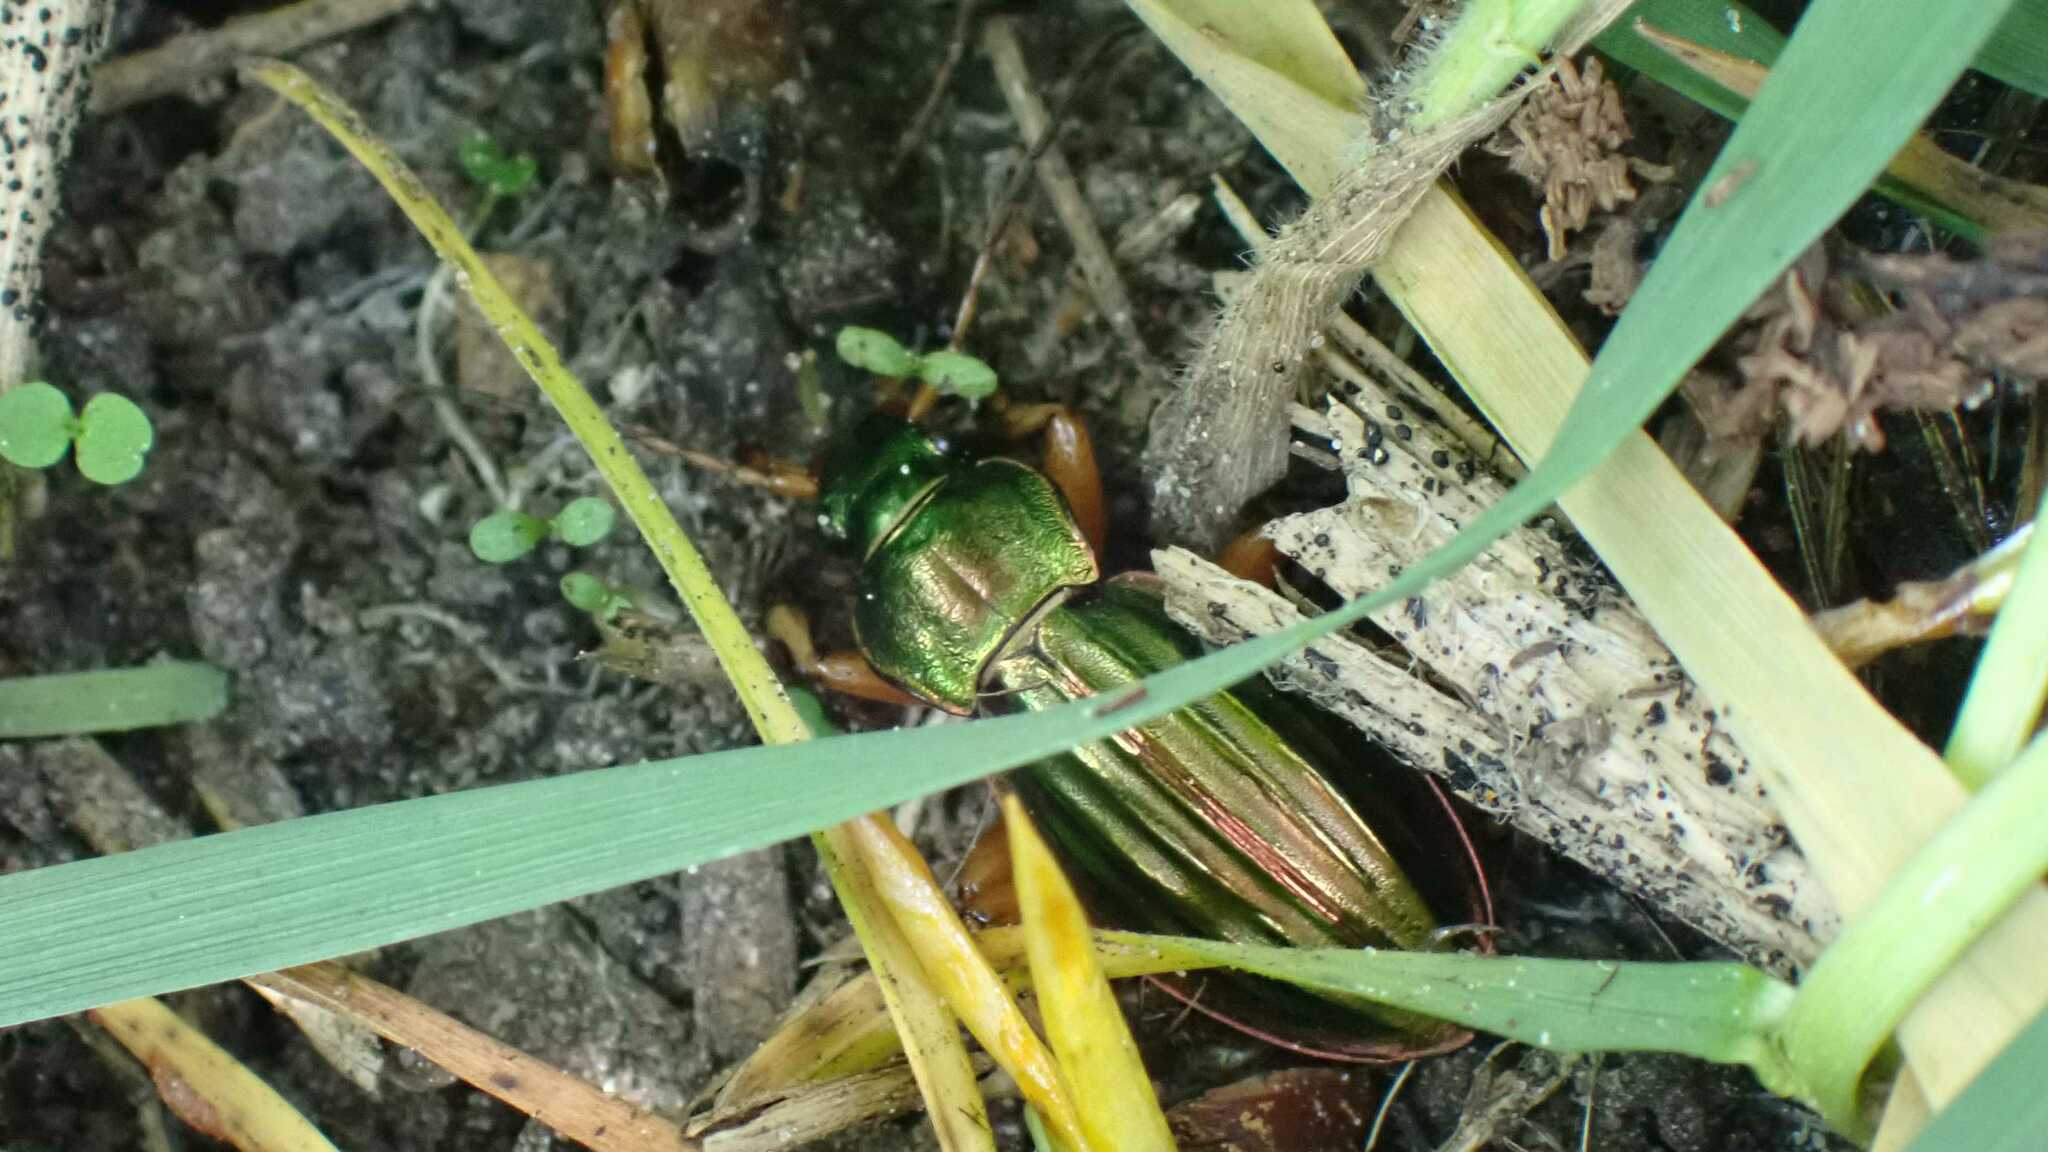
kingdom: Animalia
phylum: Arthropoda
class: Insecta
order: Coleoptera
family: Carabidae
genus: Carabus
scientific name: Carabus auratus
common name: Golden ground beetle
